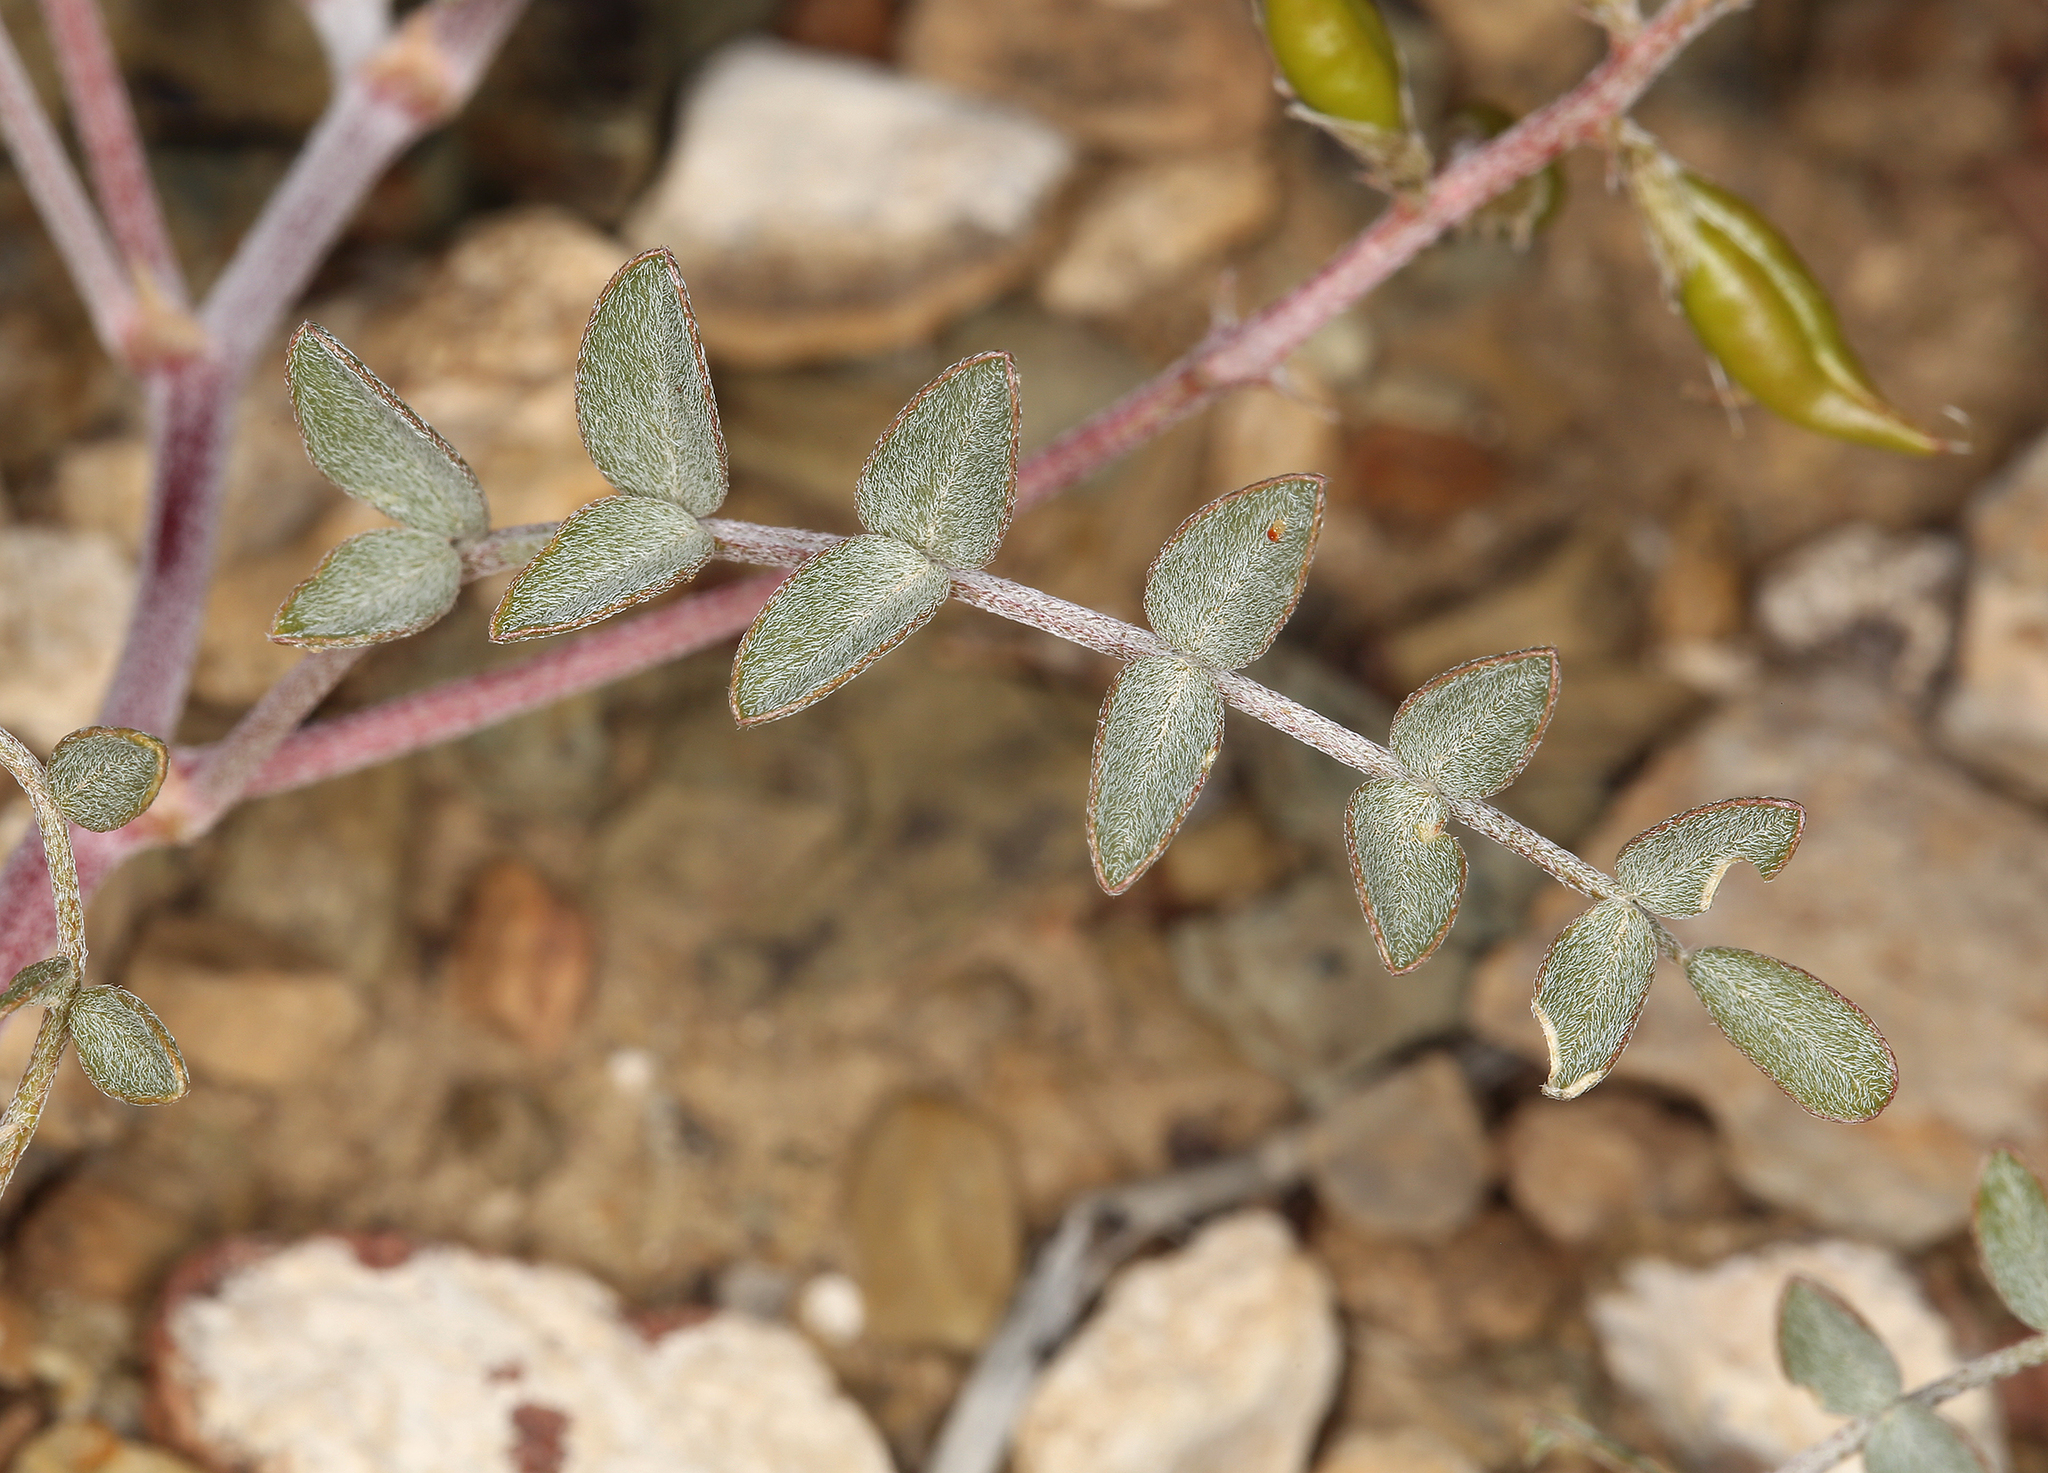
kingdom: Plantae
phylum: Tracheophyta
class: Magnoliopsida
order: Fabales
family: Fabaceae
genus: Astragalus
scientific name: Astragalus lentiginosus
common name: Freckled milkvetch
